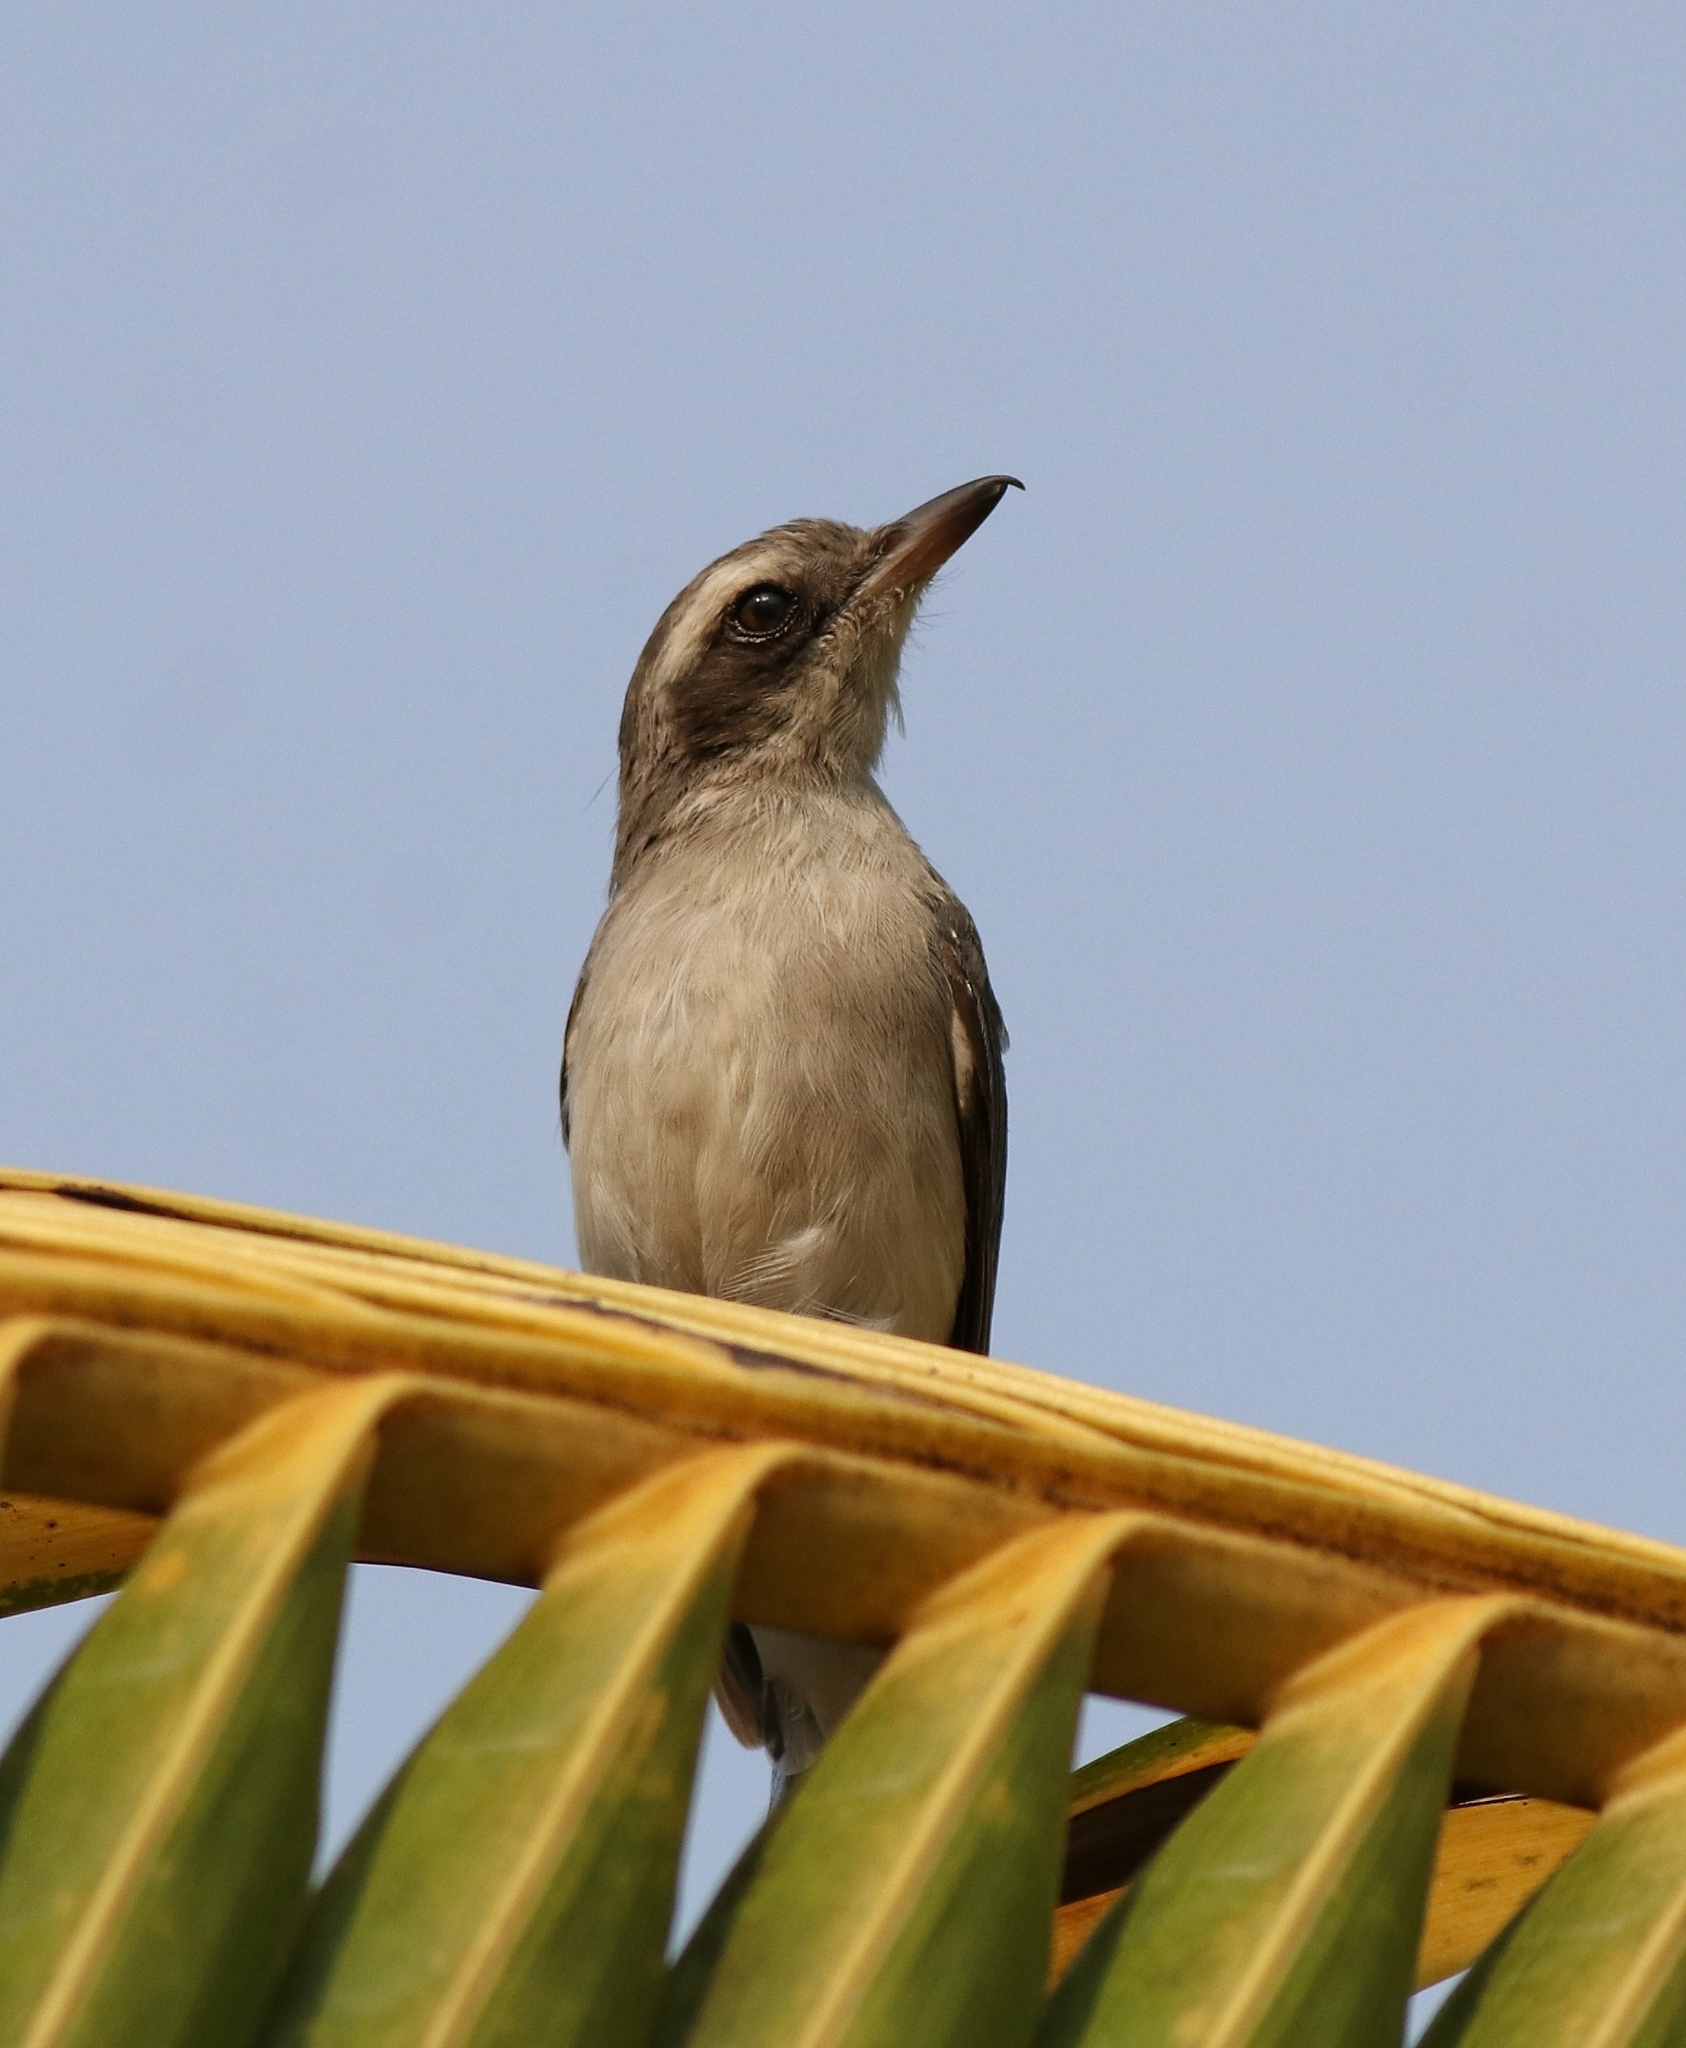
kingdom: Animalia
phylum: Chordata
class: Aves
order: Passeriformes
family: Tephrodornithidae
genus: Tephrodornis
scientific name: Tephrodornis pondicerianus
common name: Common woodshrike
